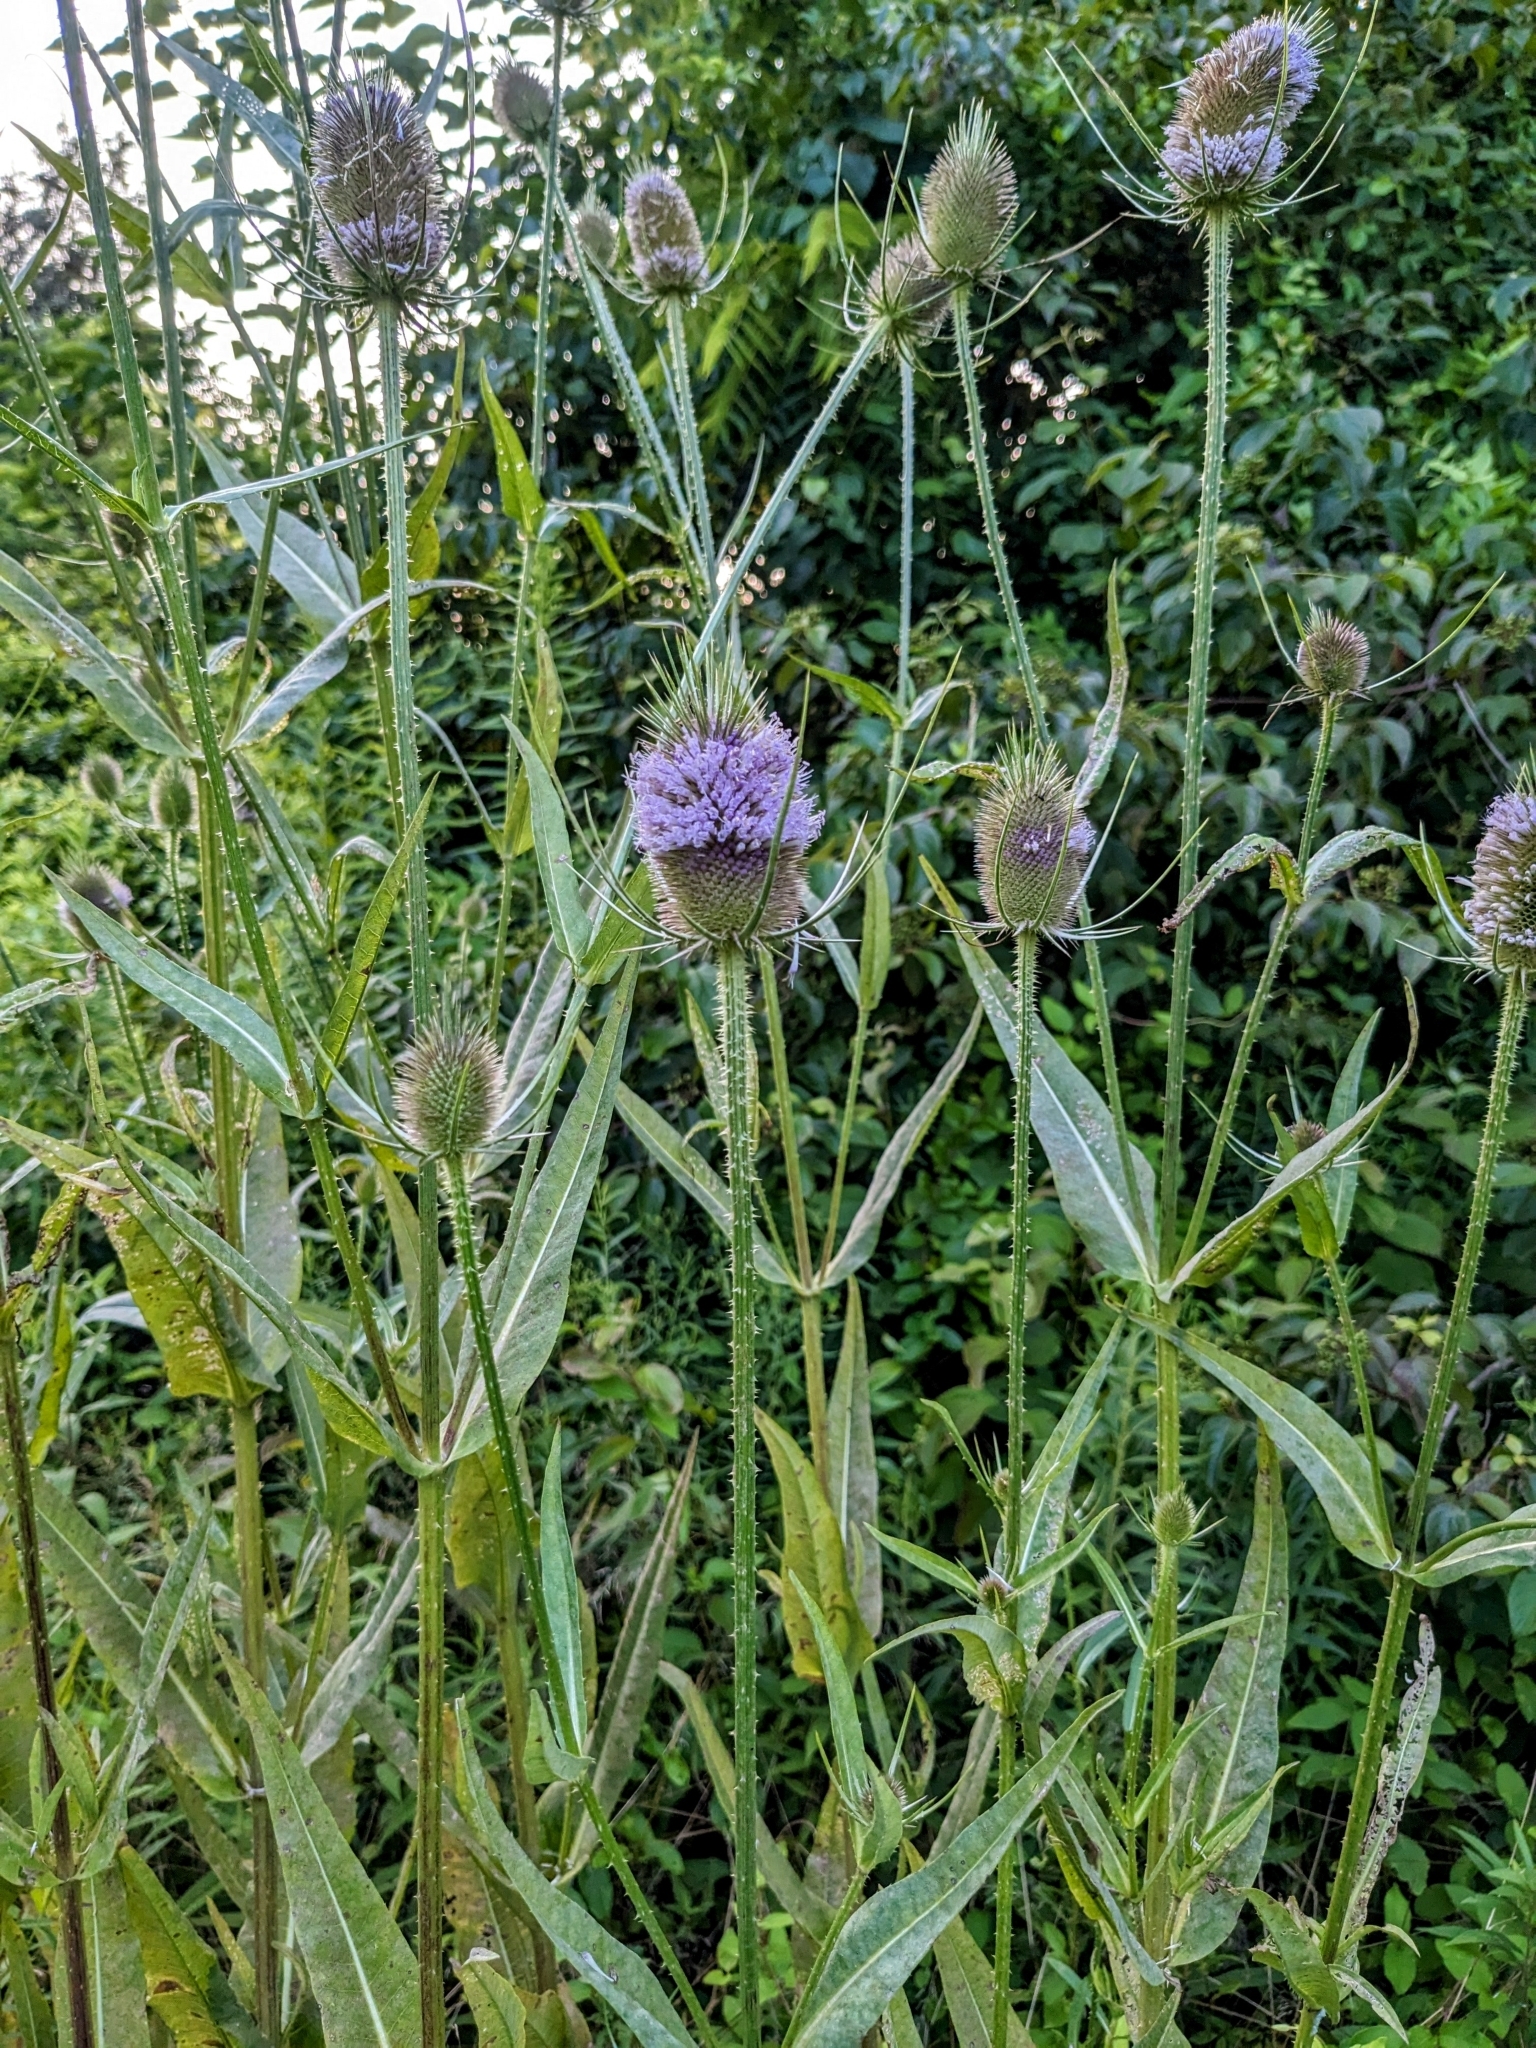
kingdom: Plantae
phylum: Tracheophyta
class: Magnoliopsida
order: Dipsacales
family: Caprifoliaceae
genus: Dipsacus
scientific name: Dipsacus fullonum
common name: Teasel
